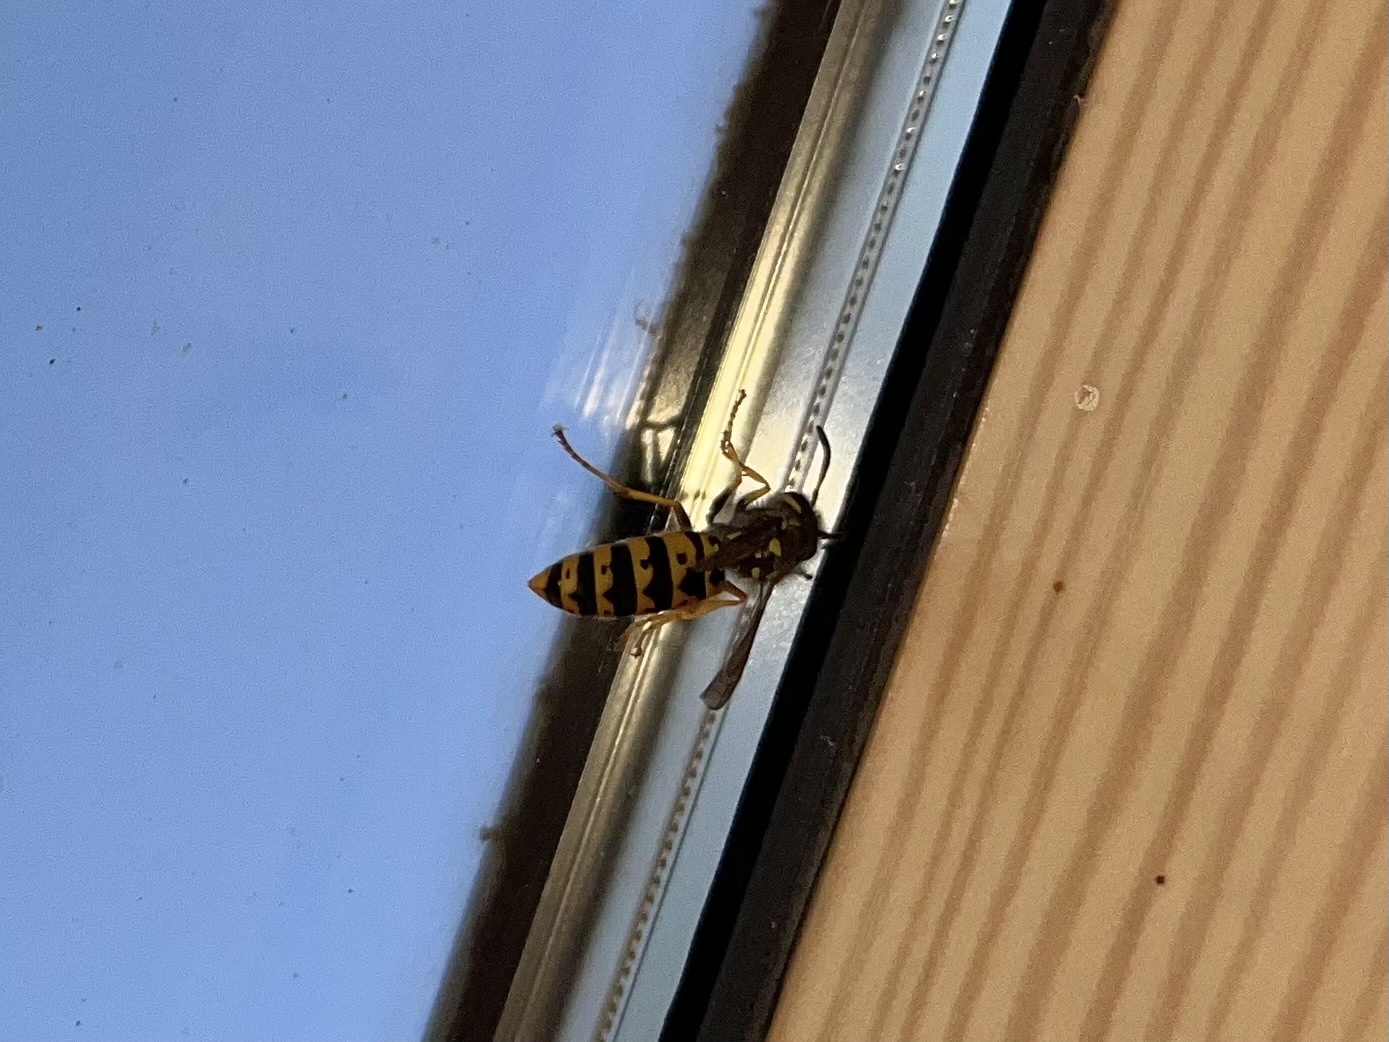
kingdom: Animalia
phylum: Arthropoda
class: Insecta
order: Hymenoptera
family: Vespidae
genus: Vespula
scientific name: Vespula germanica
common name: German wasp
